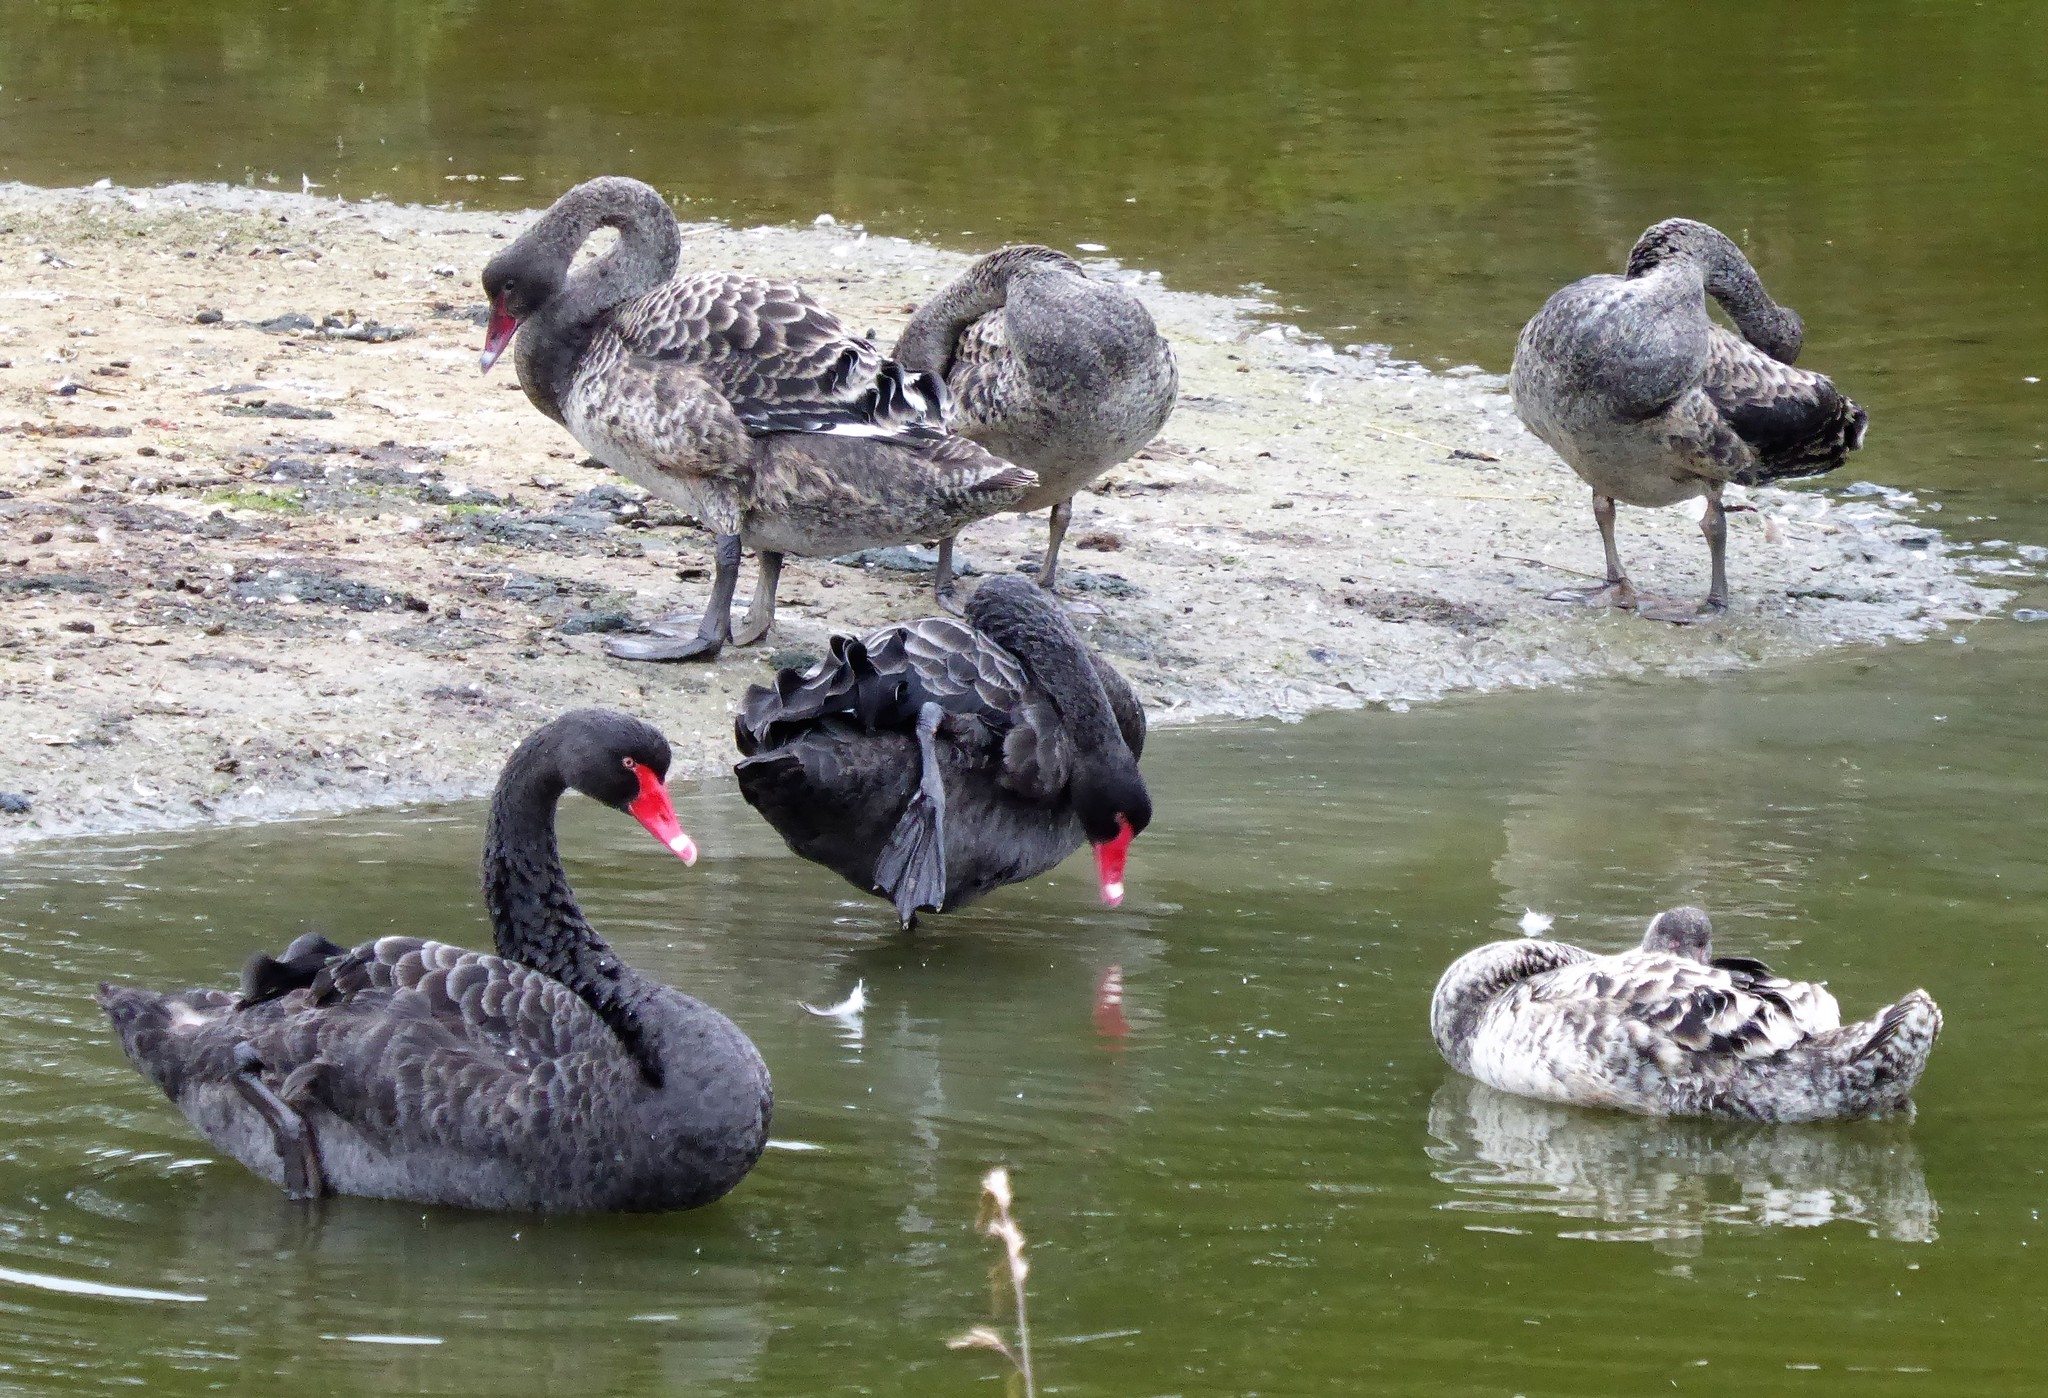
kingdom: Animalia
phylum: Chordata
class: Aves
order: Anseriformes
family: Anatidae
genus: Cygnus
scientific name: Cygnus atratus
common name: Black swan
